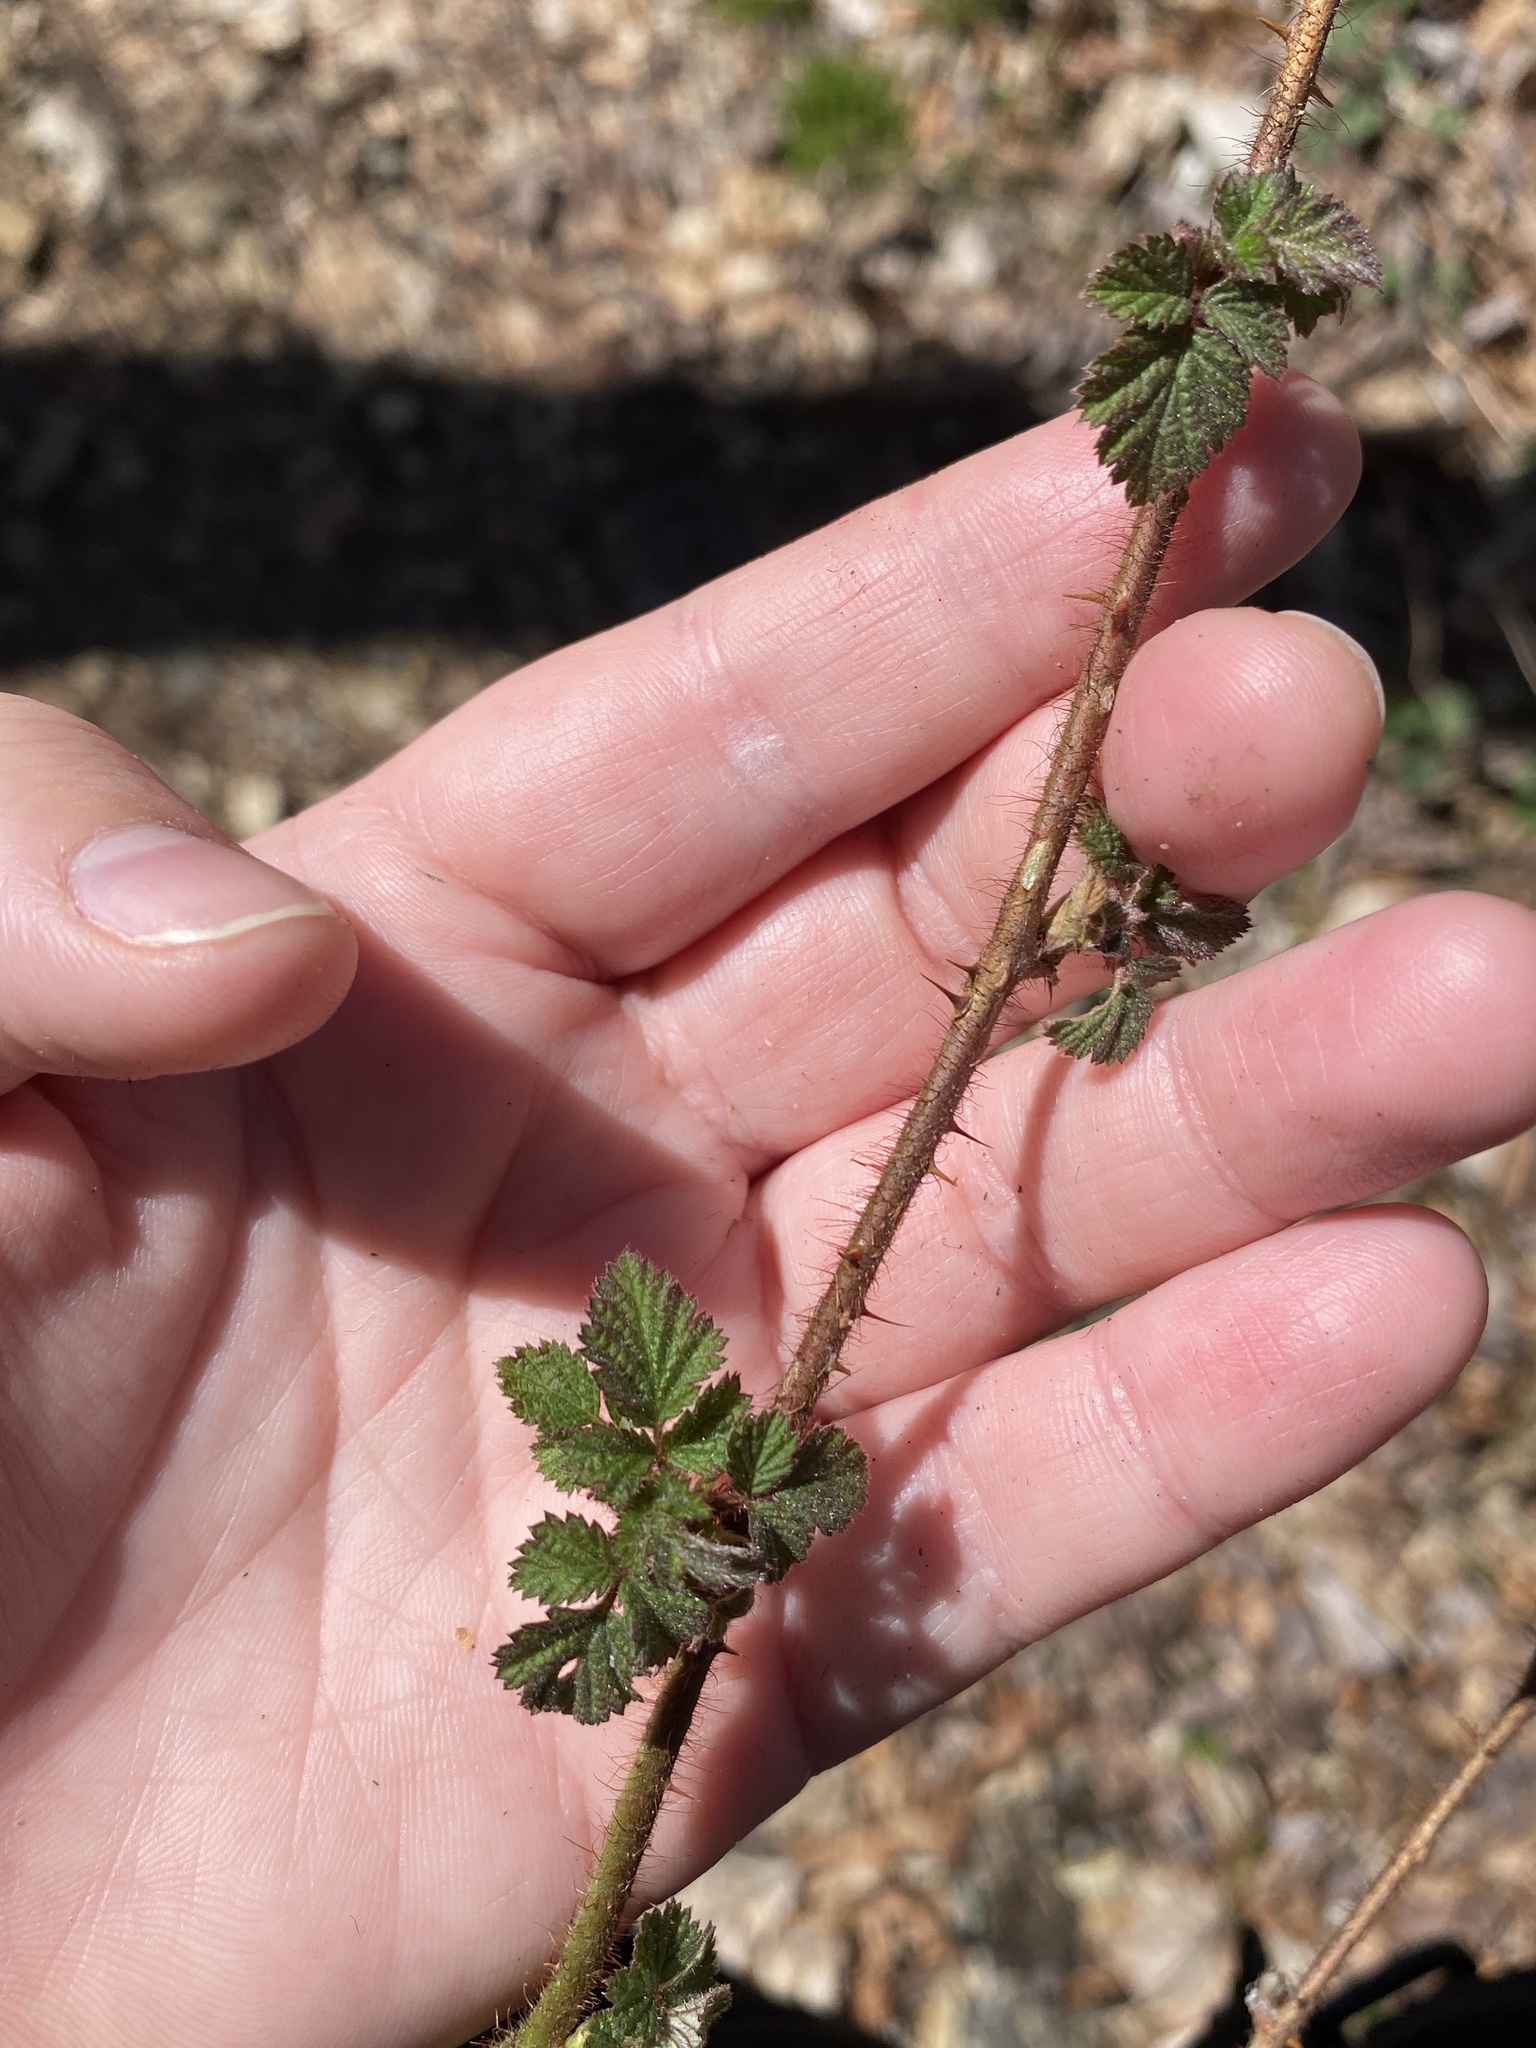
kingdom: Plantae
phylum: Tracheophyta
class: Magnoliopsida
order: Rosales
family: Rosaceae
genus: Rubus
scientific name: Rubus phoenicolasius
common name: Japanese wineberry
